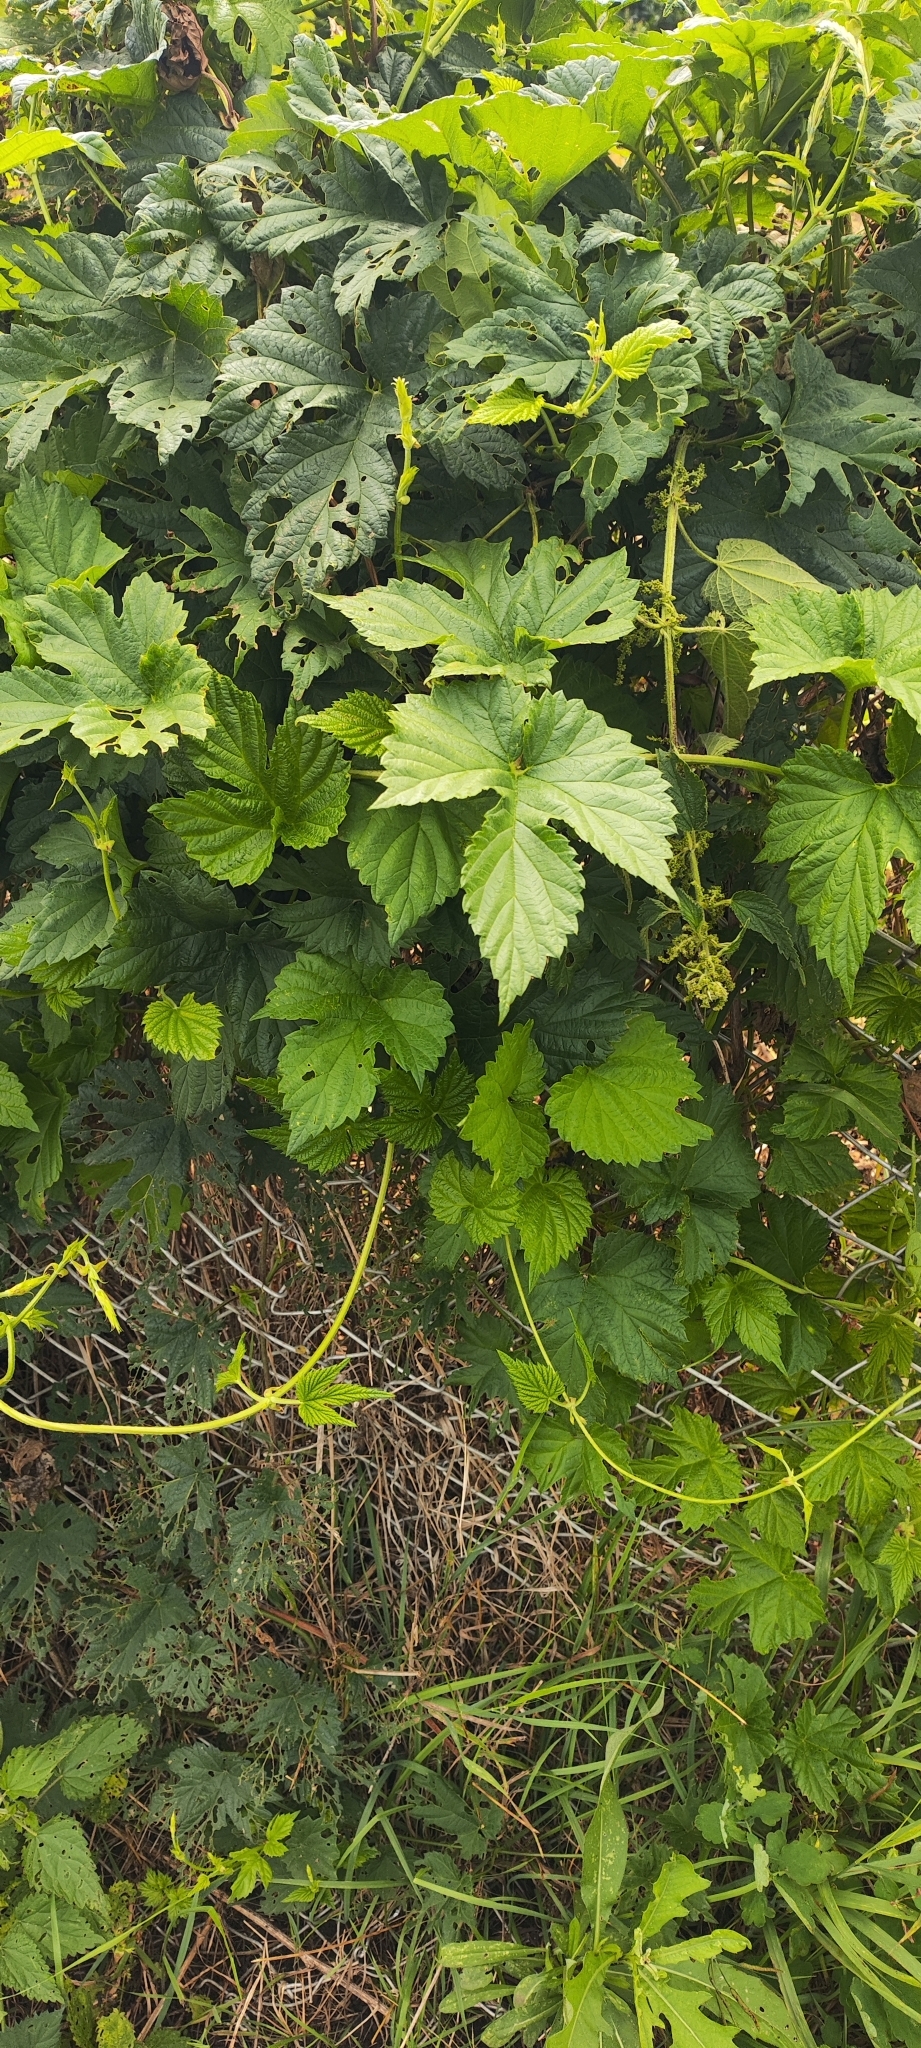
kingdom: Plantae
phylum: Tracheophyta
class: Magnoliopsida
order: Rosales
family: Cannabaceae
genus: Humulus
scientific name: Humulus lupulus
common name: Hop
